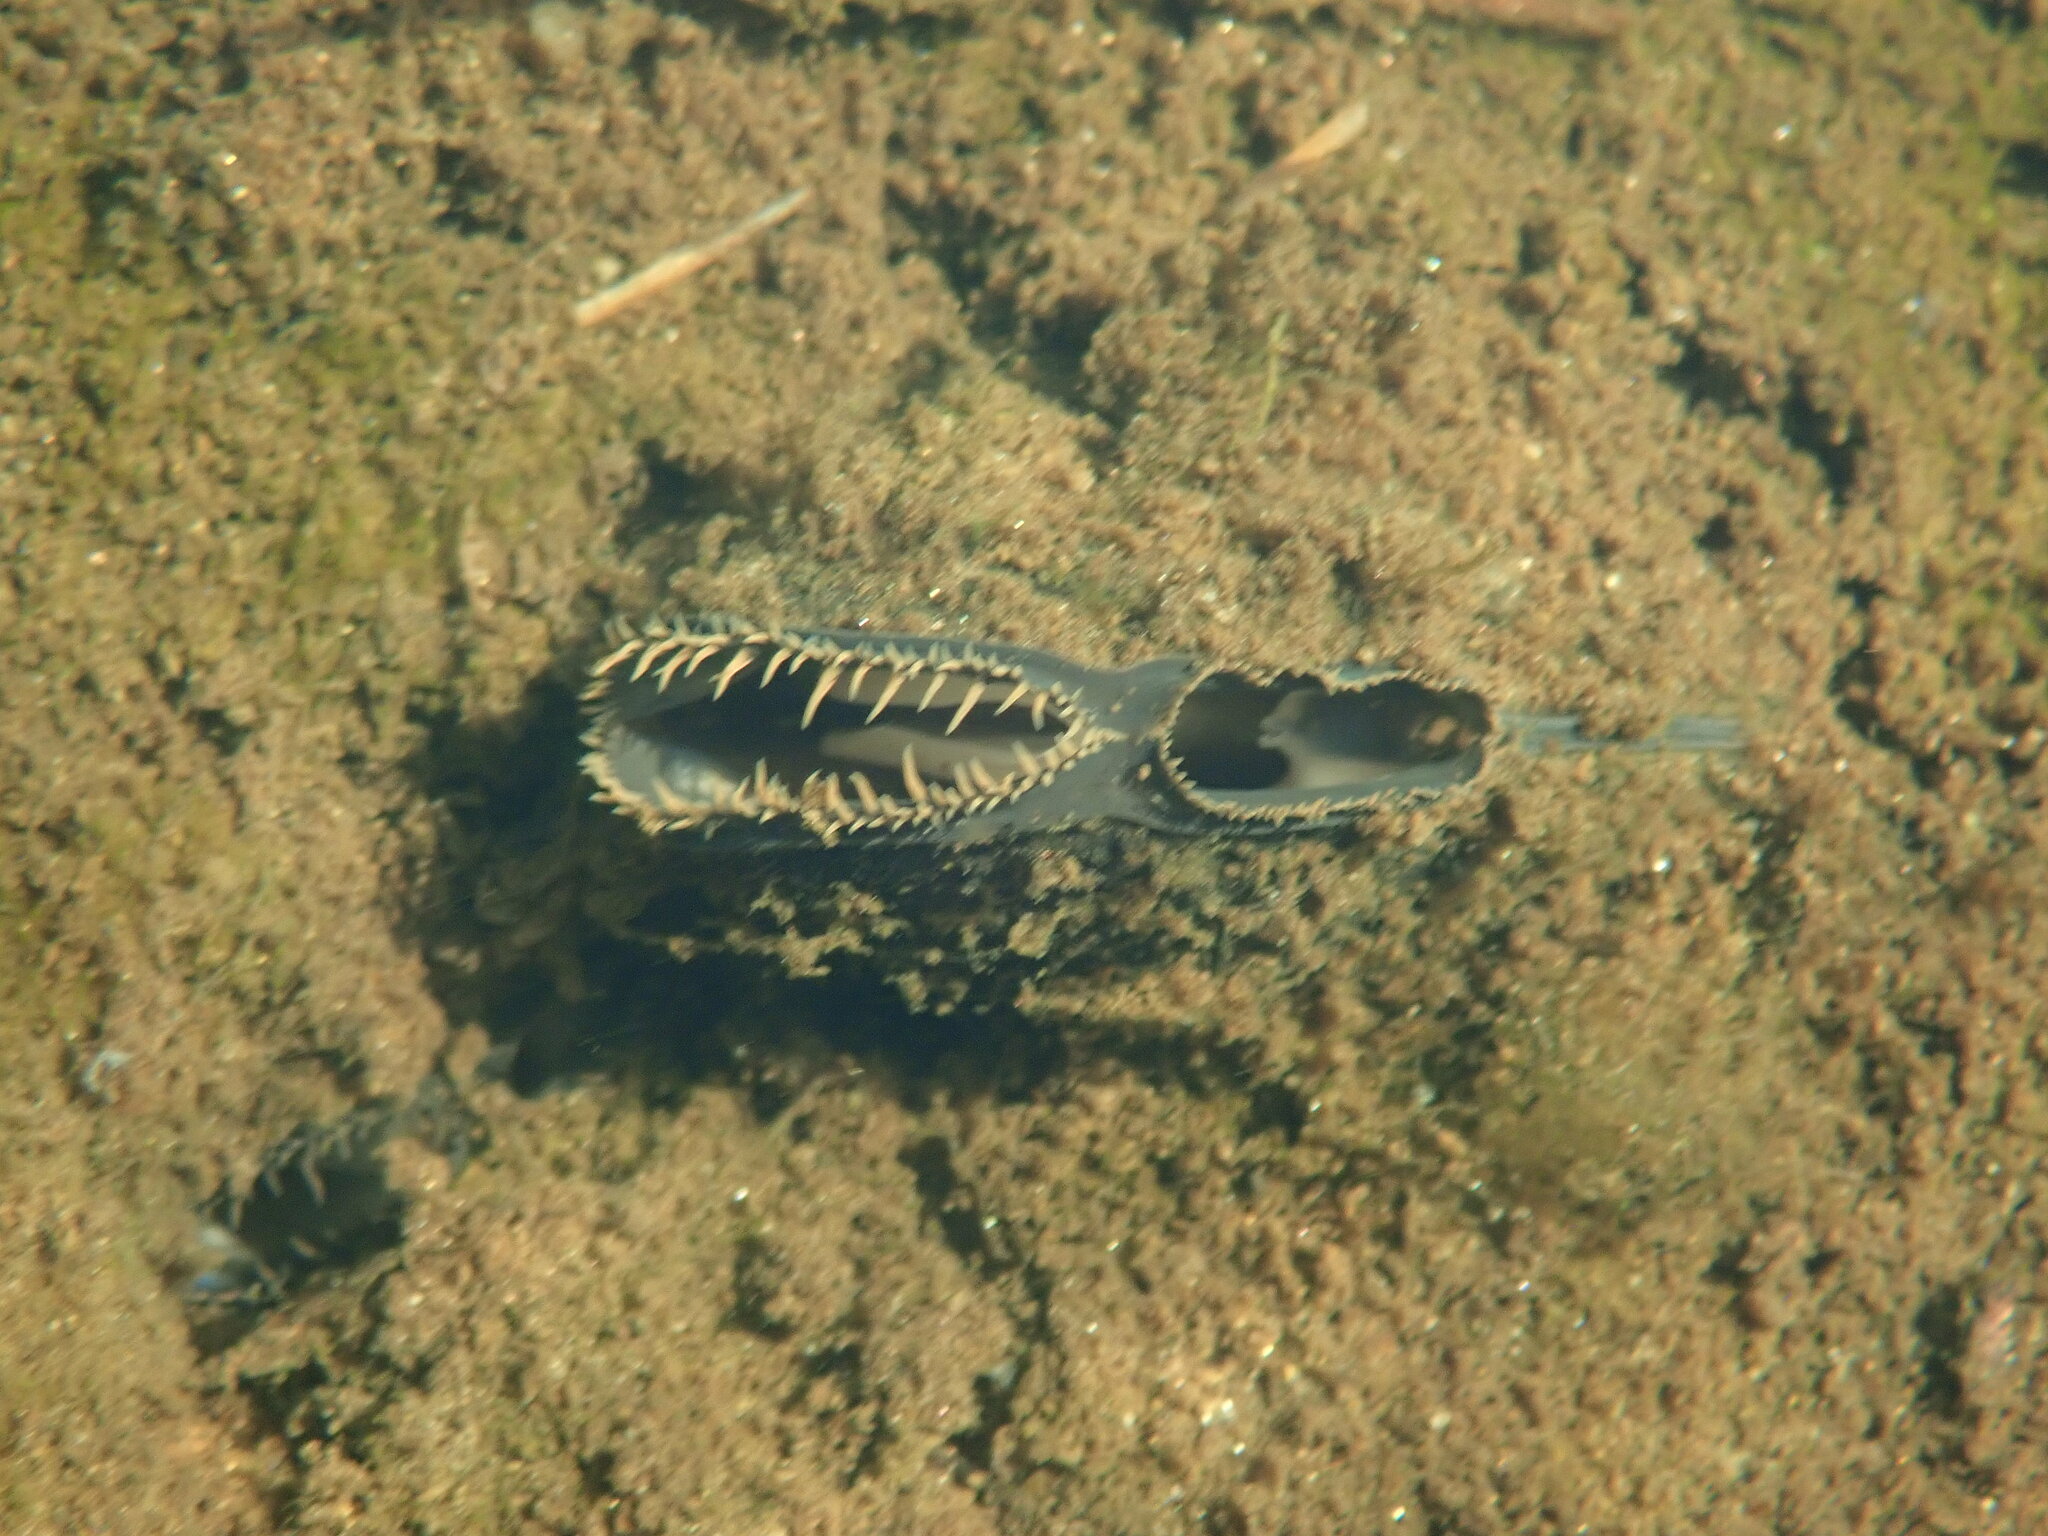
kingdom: Animalia
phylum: Mollusca
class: Bivalvia
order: Unionida
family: Unionidae
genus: Elliptio
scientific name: Elliptio complanata
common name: Eastern elliptio
